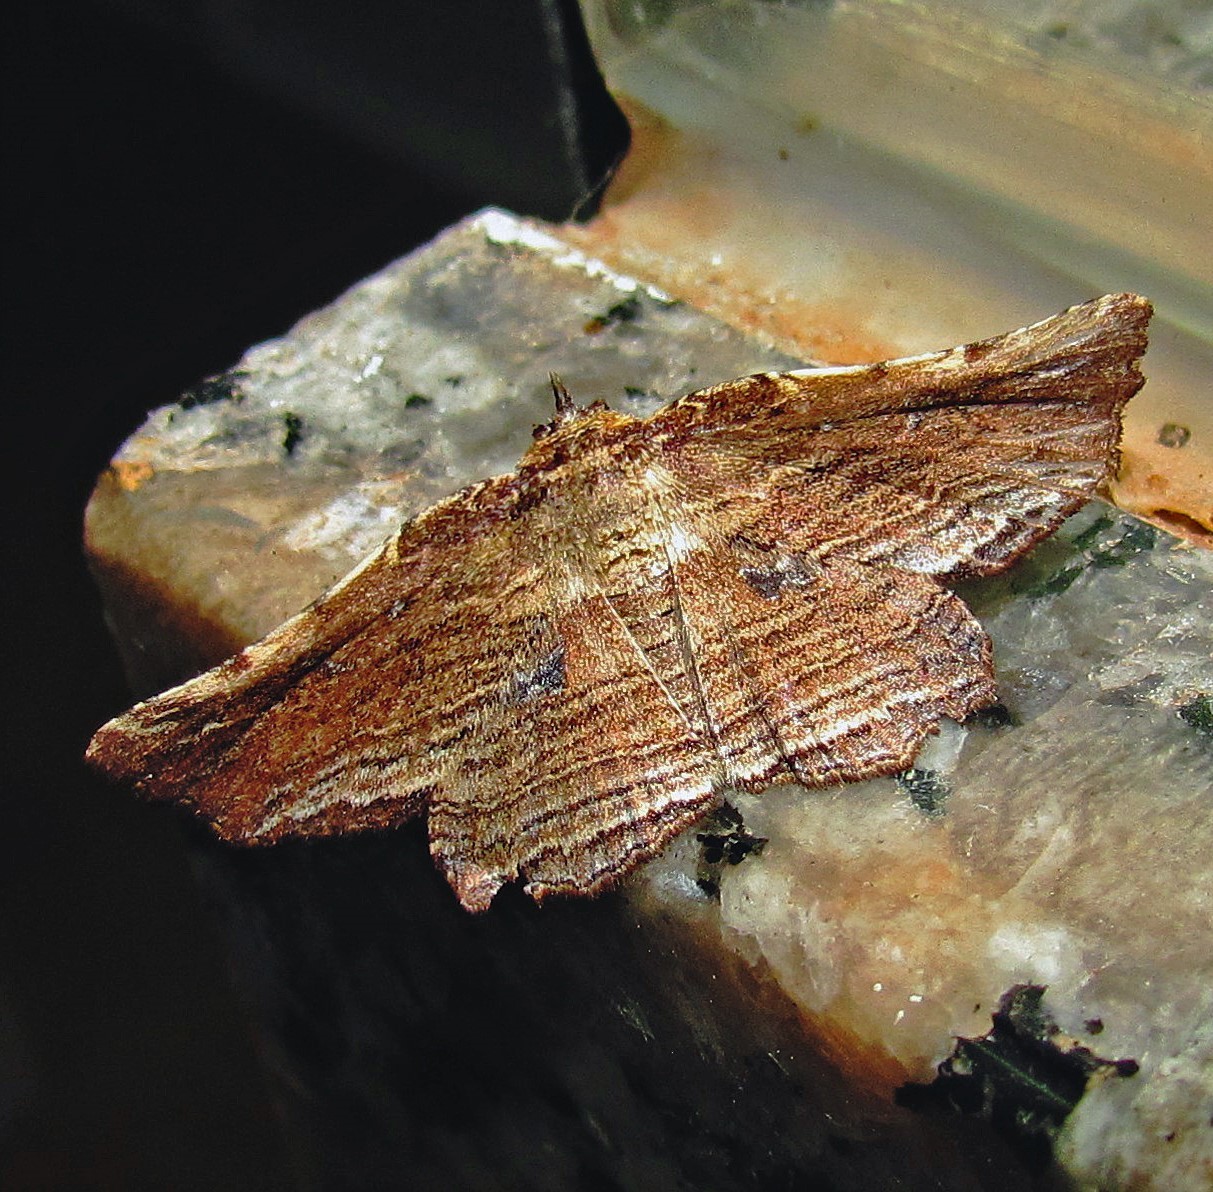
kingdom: Animalia
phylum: Arthropoda
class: Insecta
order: Lepidoptera
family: Erebidae
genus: Diagrapta
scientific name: Diagrapta lignaria
